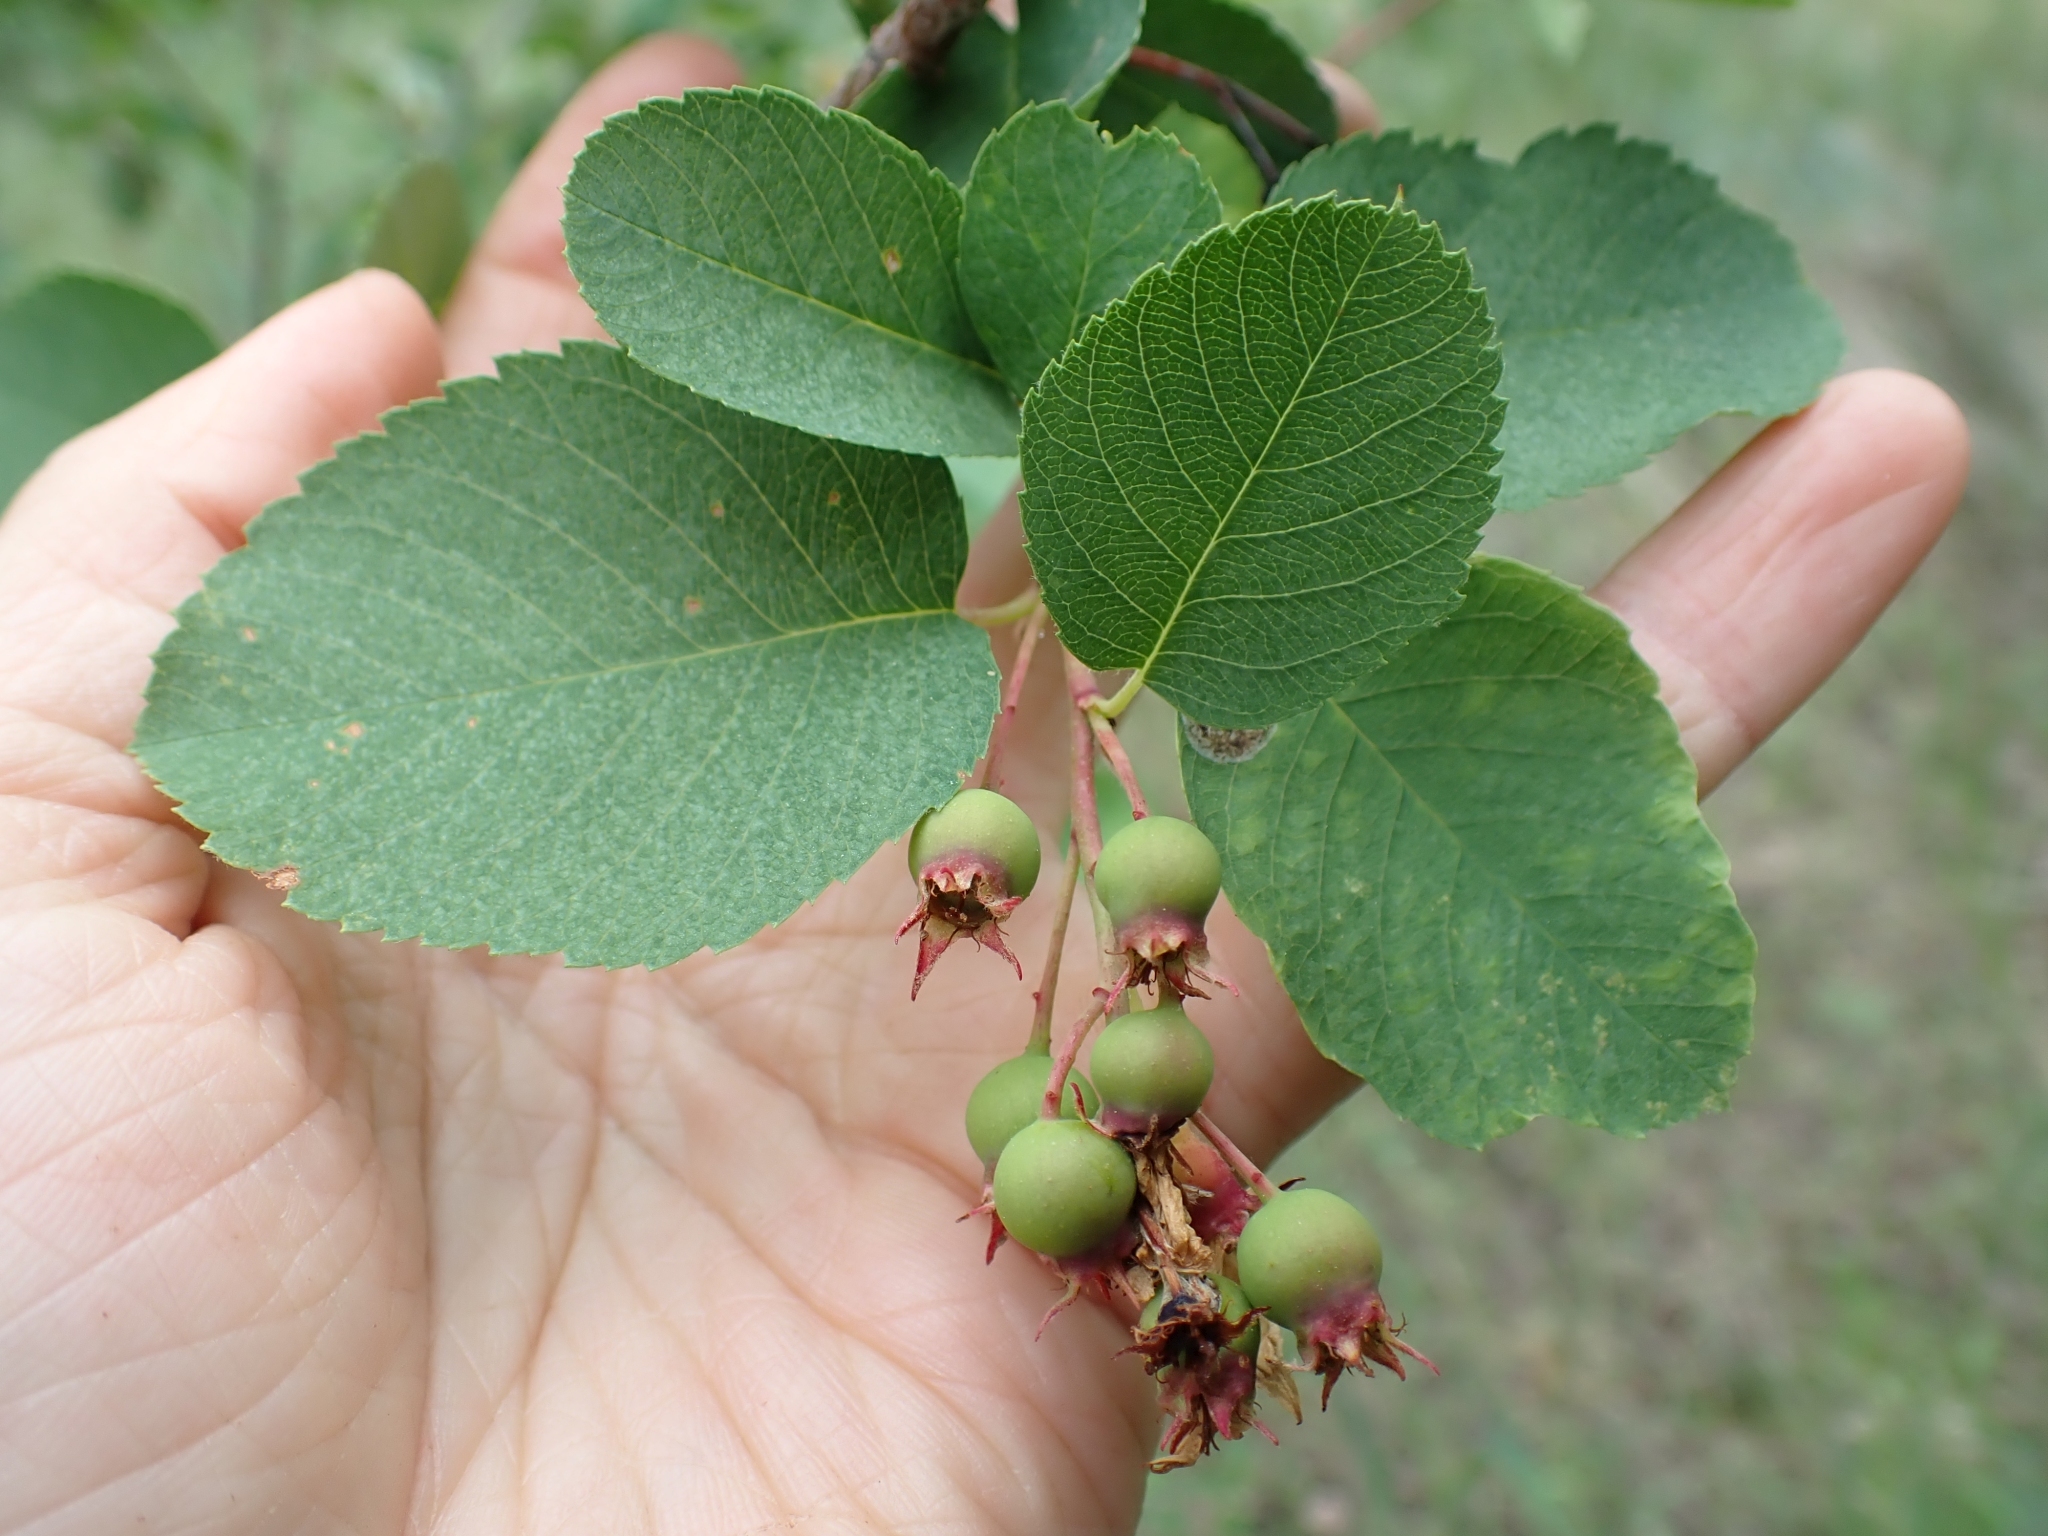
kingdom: Plantae
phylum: Tracheophyta
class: Magnoliopsida
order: Rosales
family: Rosaceae
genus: Amelanchier
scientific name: Amelanchier alnifolia
